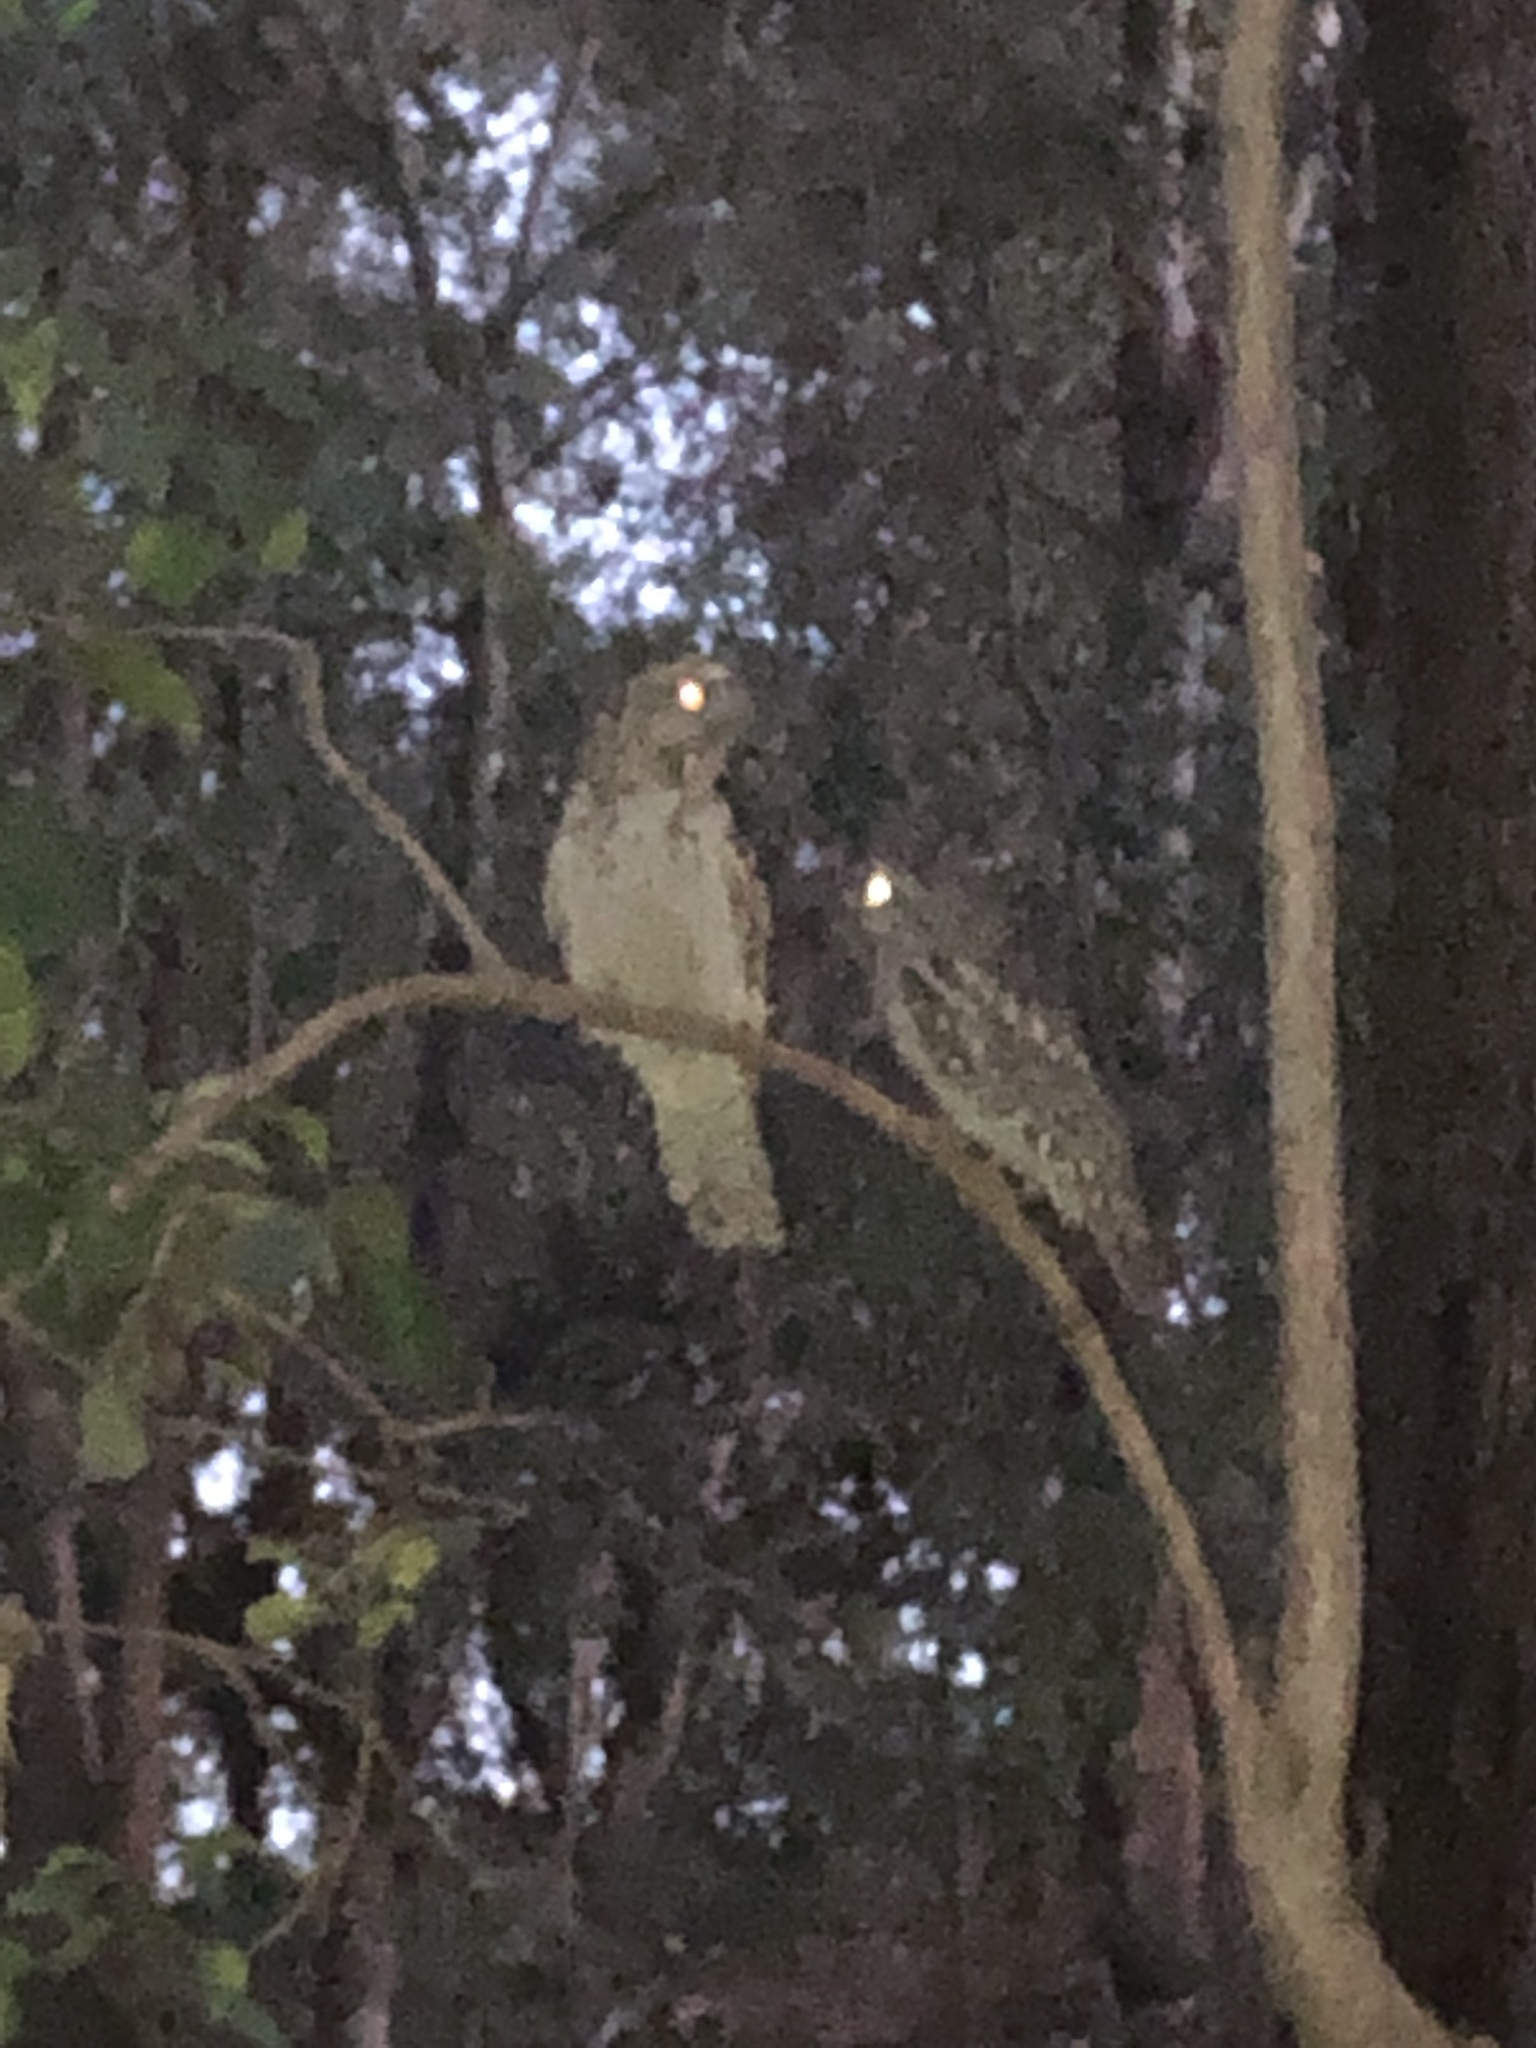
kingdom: Animalia
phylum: Chordata
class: Aves
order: Caprimulgiformes
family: Podargidae
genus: Podargus
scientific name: Podargus strigoides
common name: Tawny frogmouth
